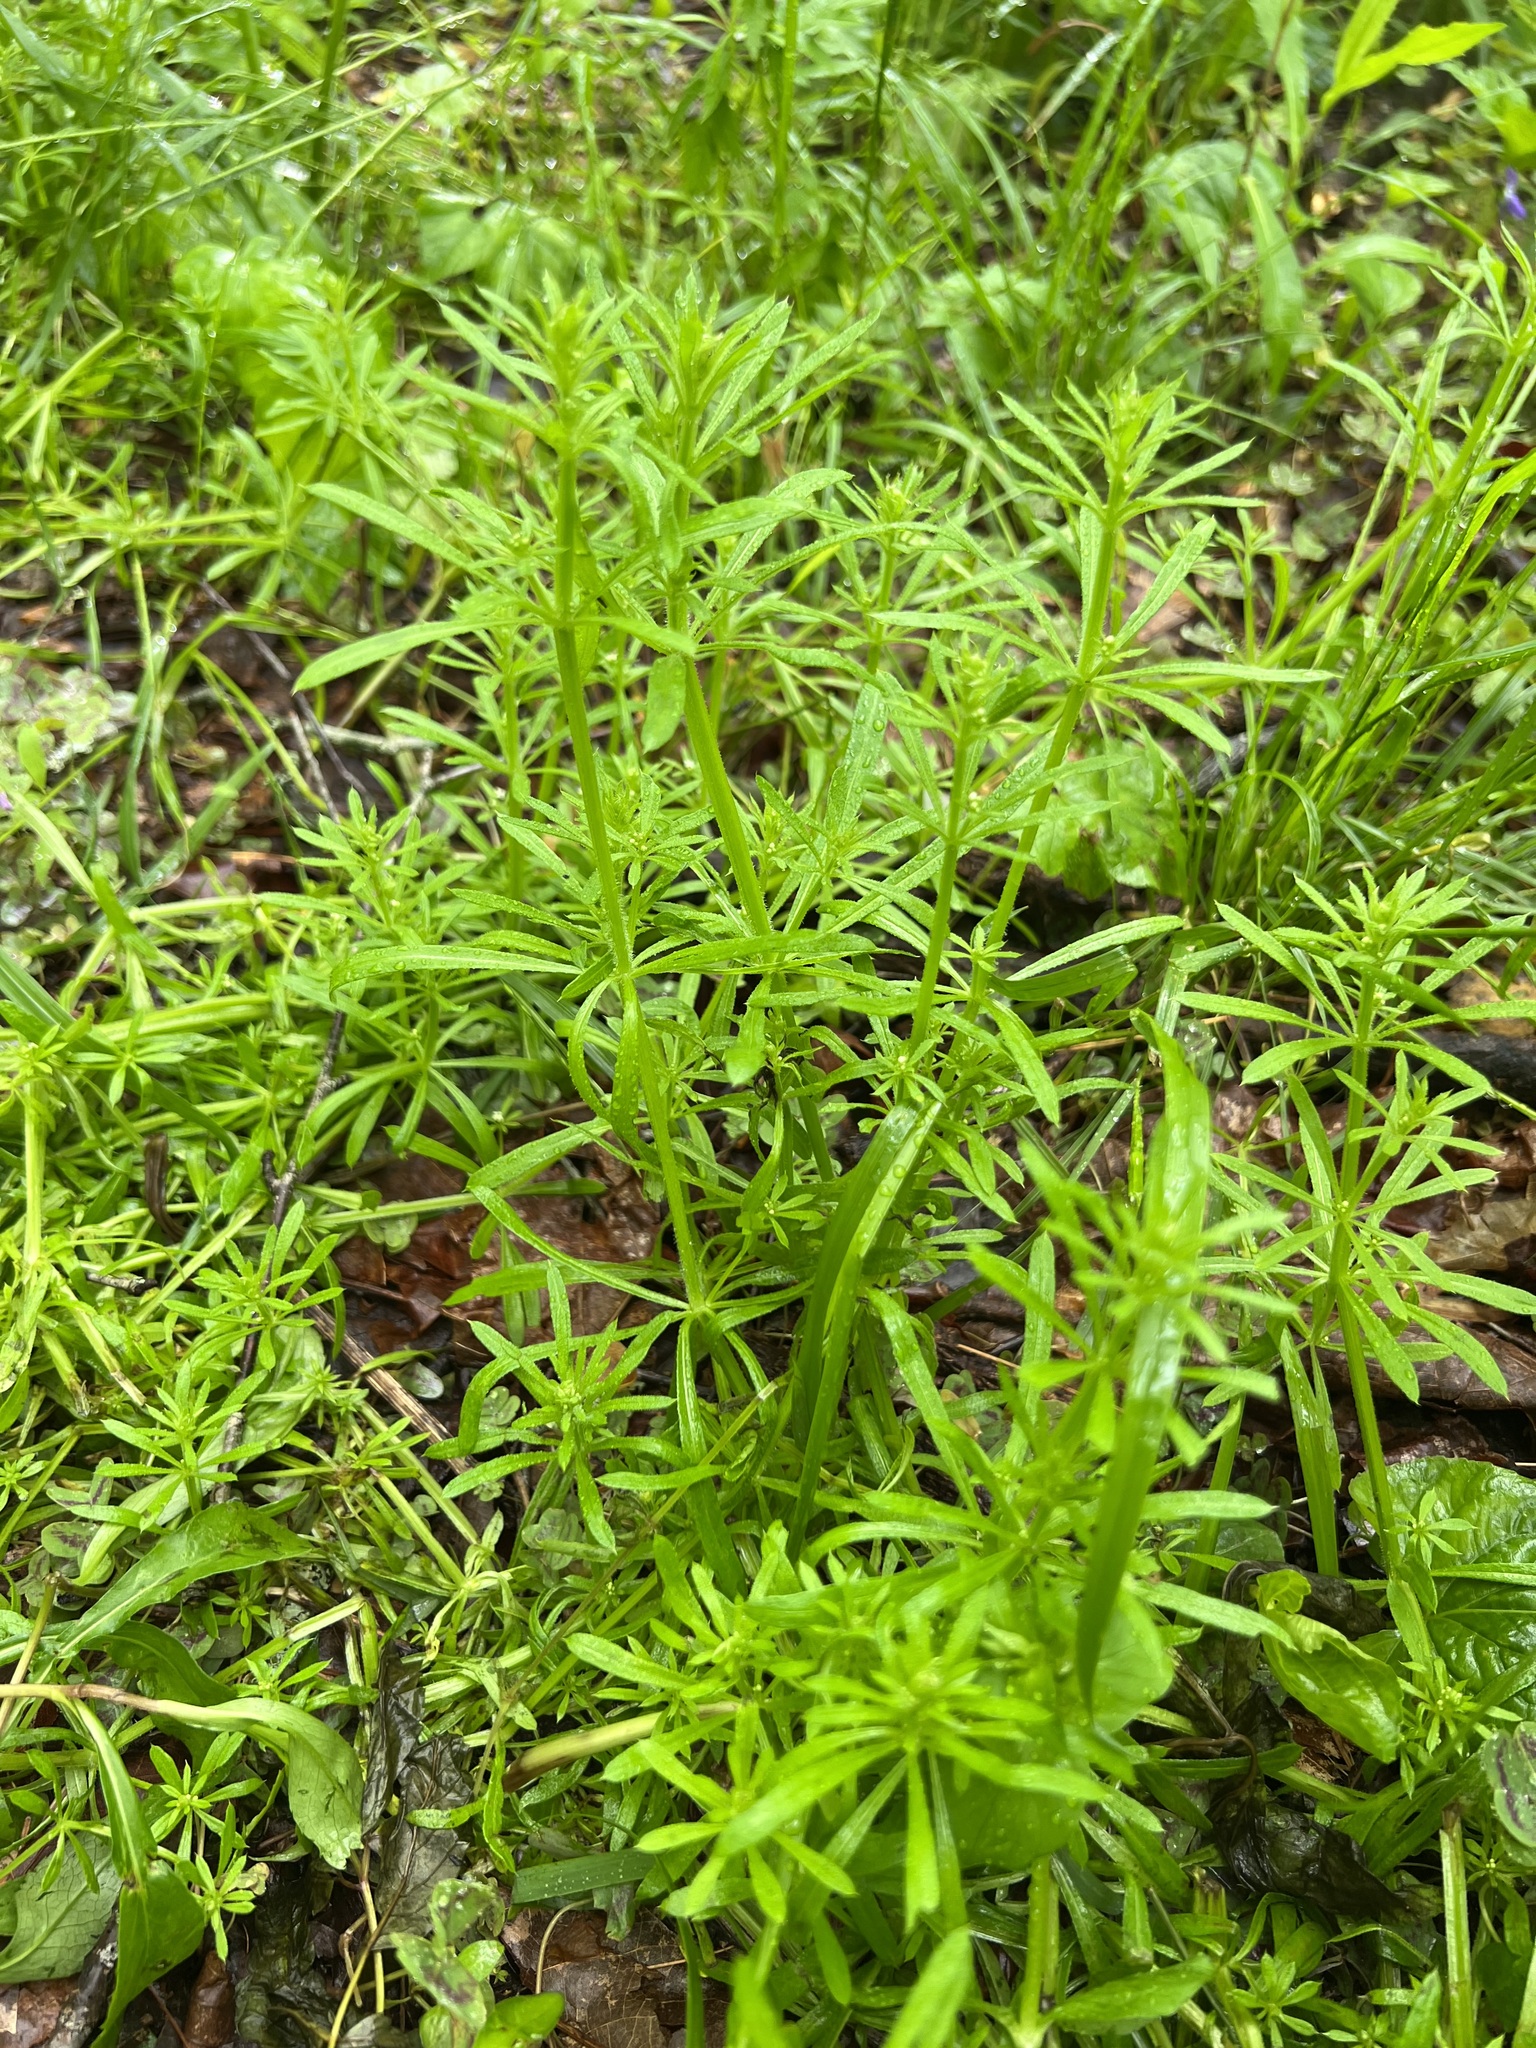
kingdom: Plantae
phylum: Tracheophyta
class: Magnoliopsida
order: Gentianales
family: Rubiaceae
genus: Galium
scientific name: Galium aparine
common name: Cleavers
